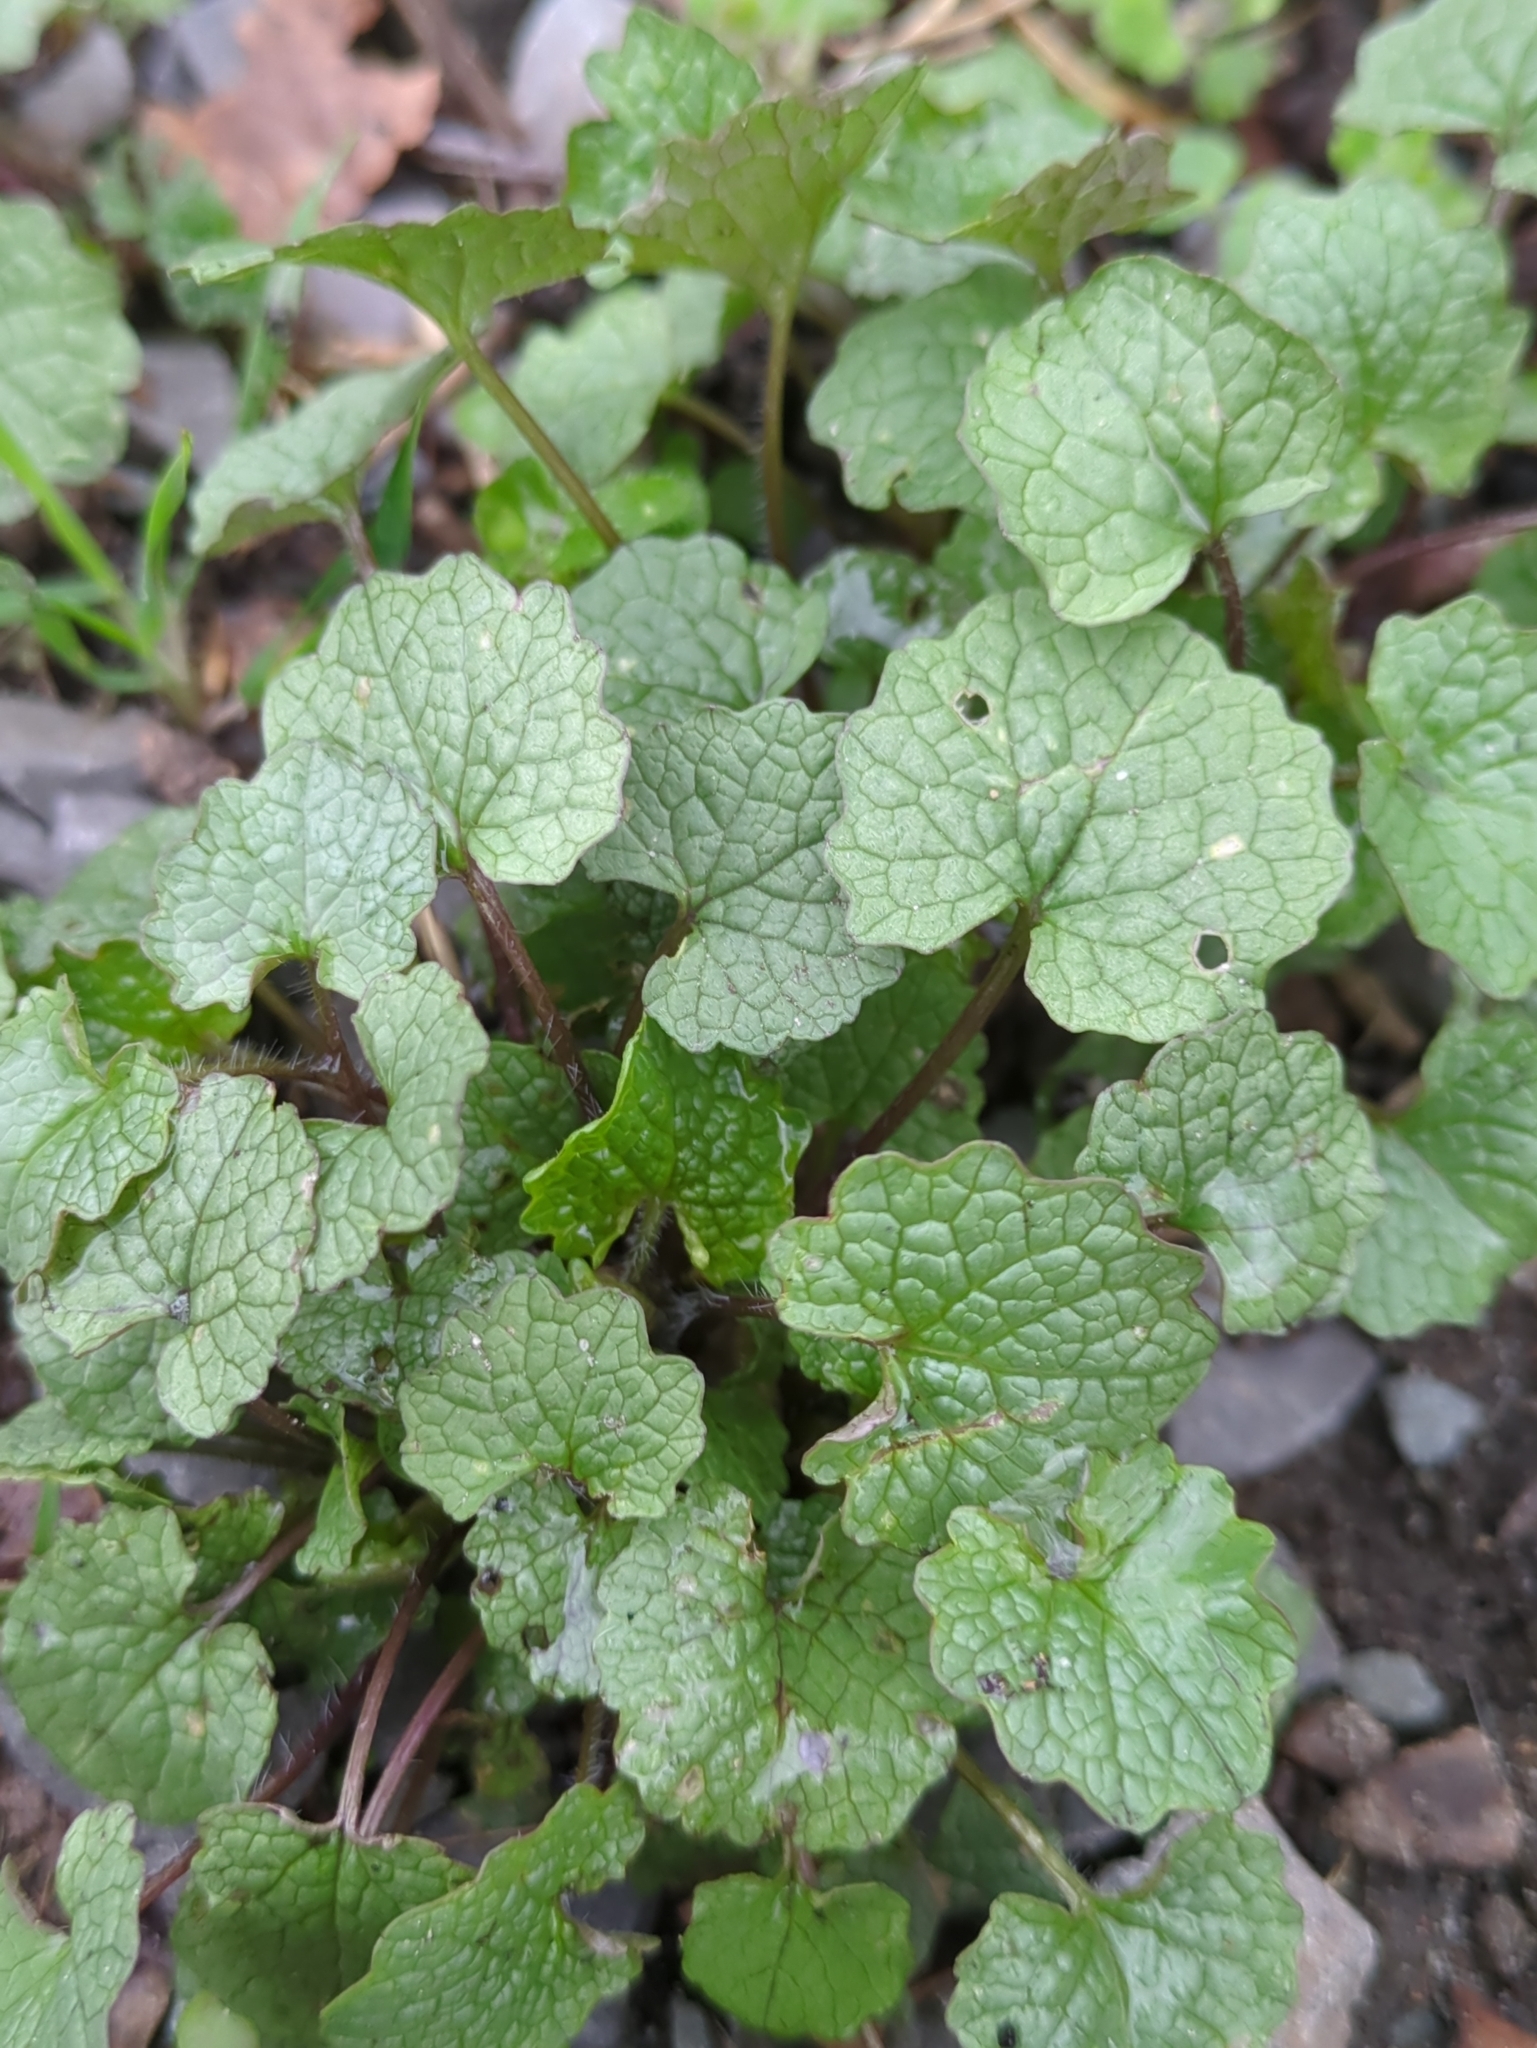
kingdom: Plantae
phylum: Tracheophyta
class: Magnoliopsida
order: Brassicales
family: Brassicaceae
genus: Alliaria
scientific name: Alliaria petiolata
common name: Garlic mustard
